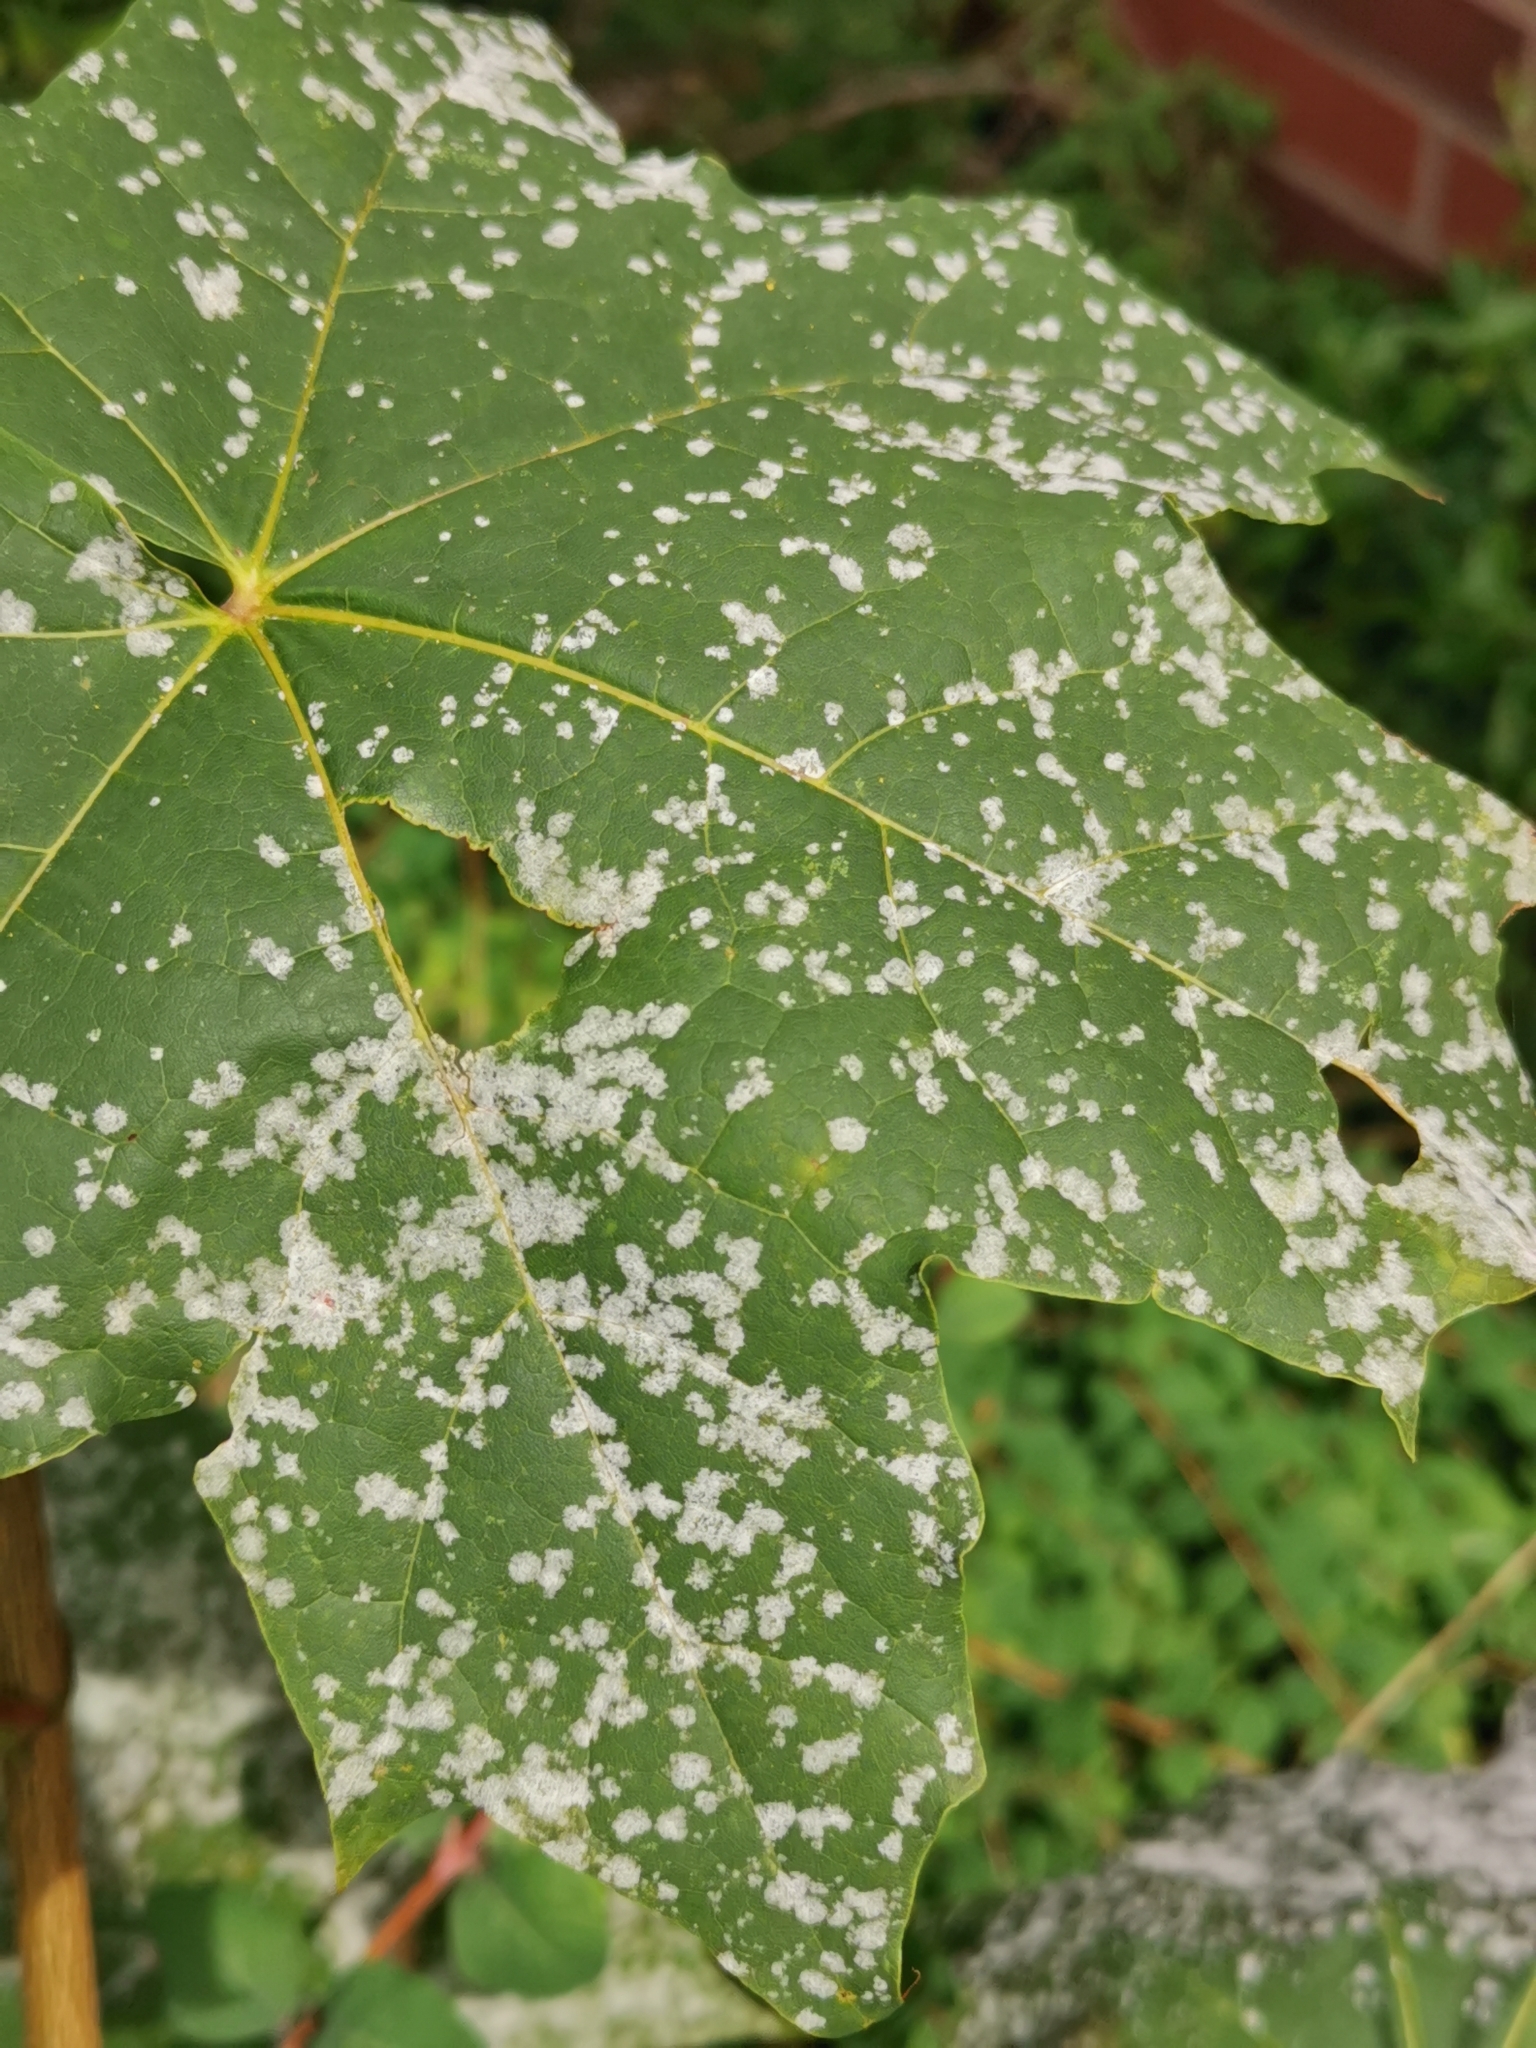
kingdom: Fungi
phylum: Ascomycota
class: Leotiomycetes
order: Helotiales
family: Erysiphaceae
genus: Sawadaea
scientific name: Sawadaea tulasnei
